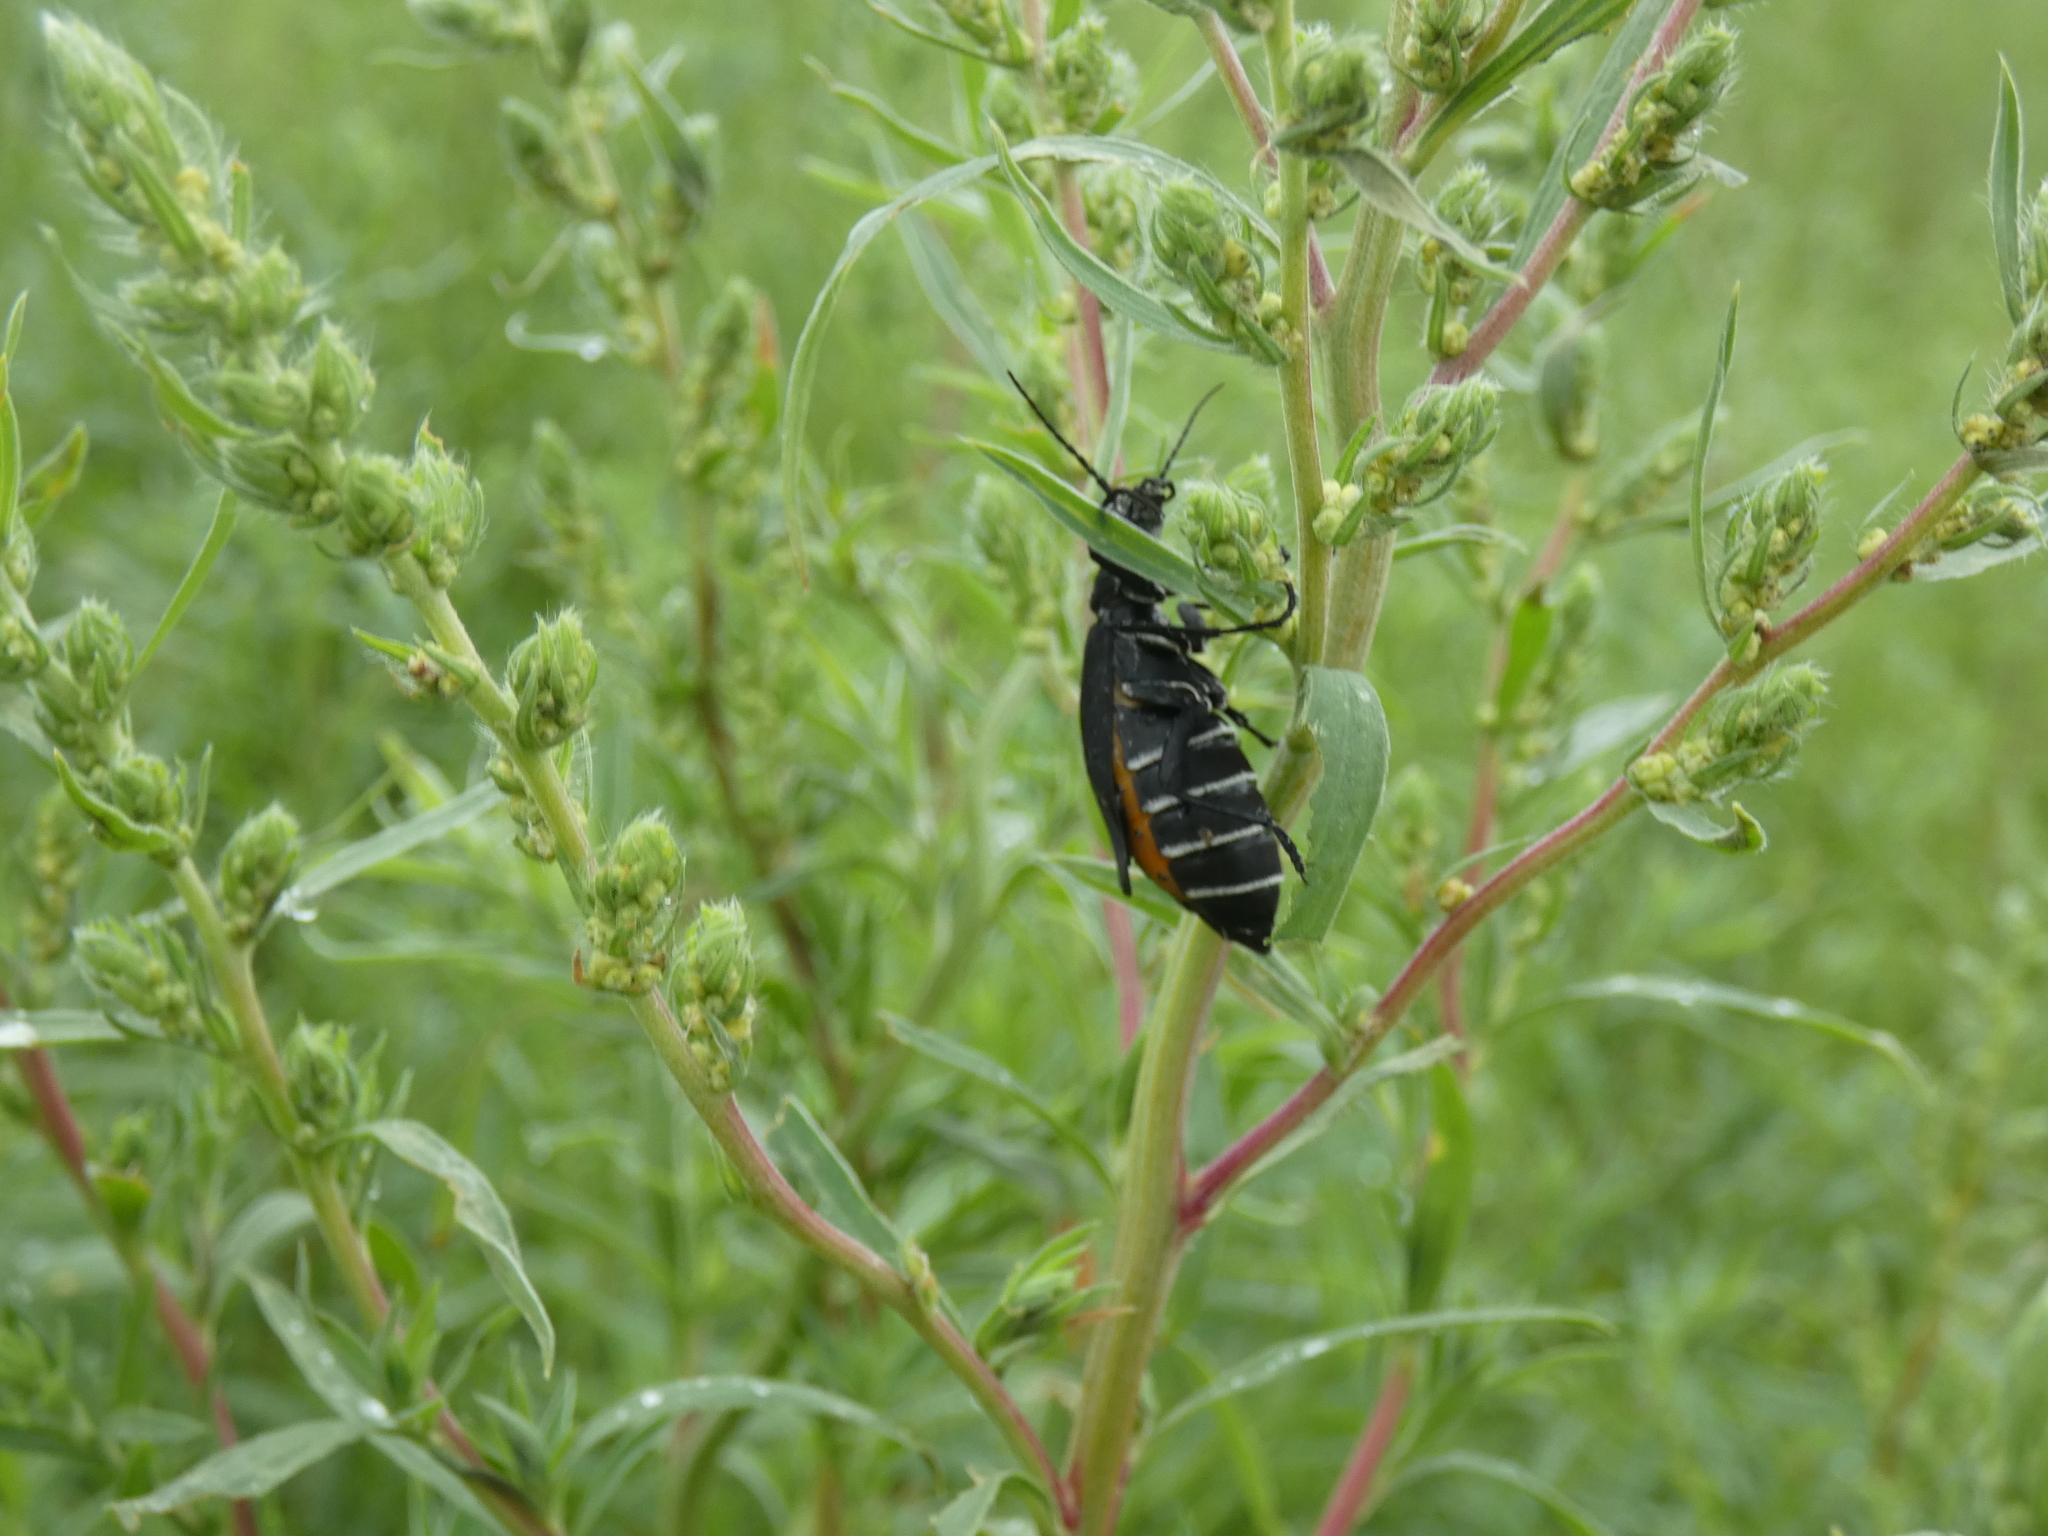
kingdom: Animalia
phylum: Arthropoda
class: Insecta
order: Coleoptera
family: Meloidae
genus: Epicauta
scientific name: Epicauta segmenta
